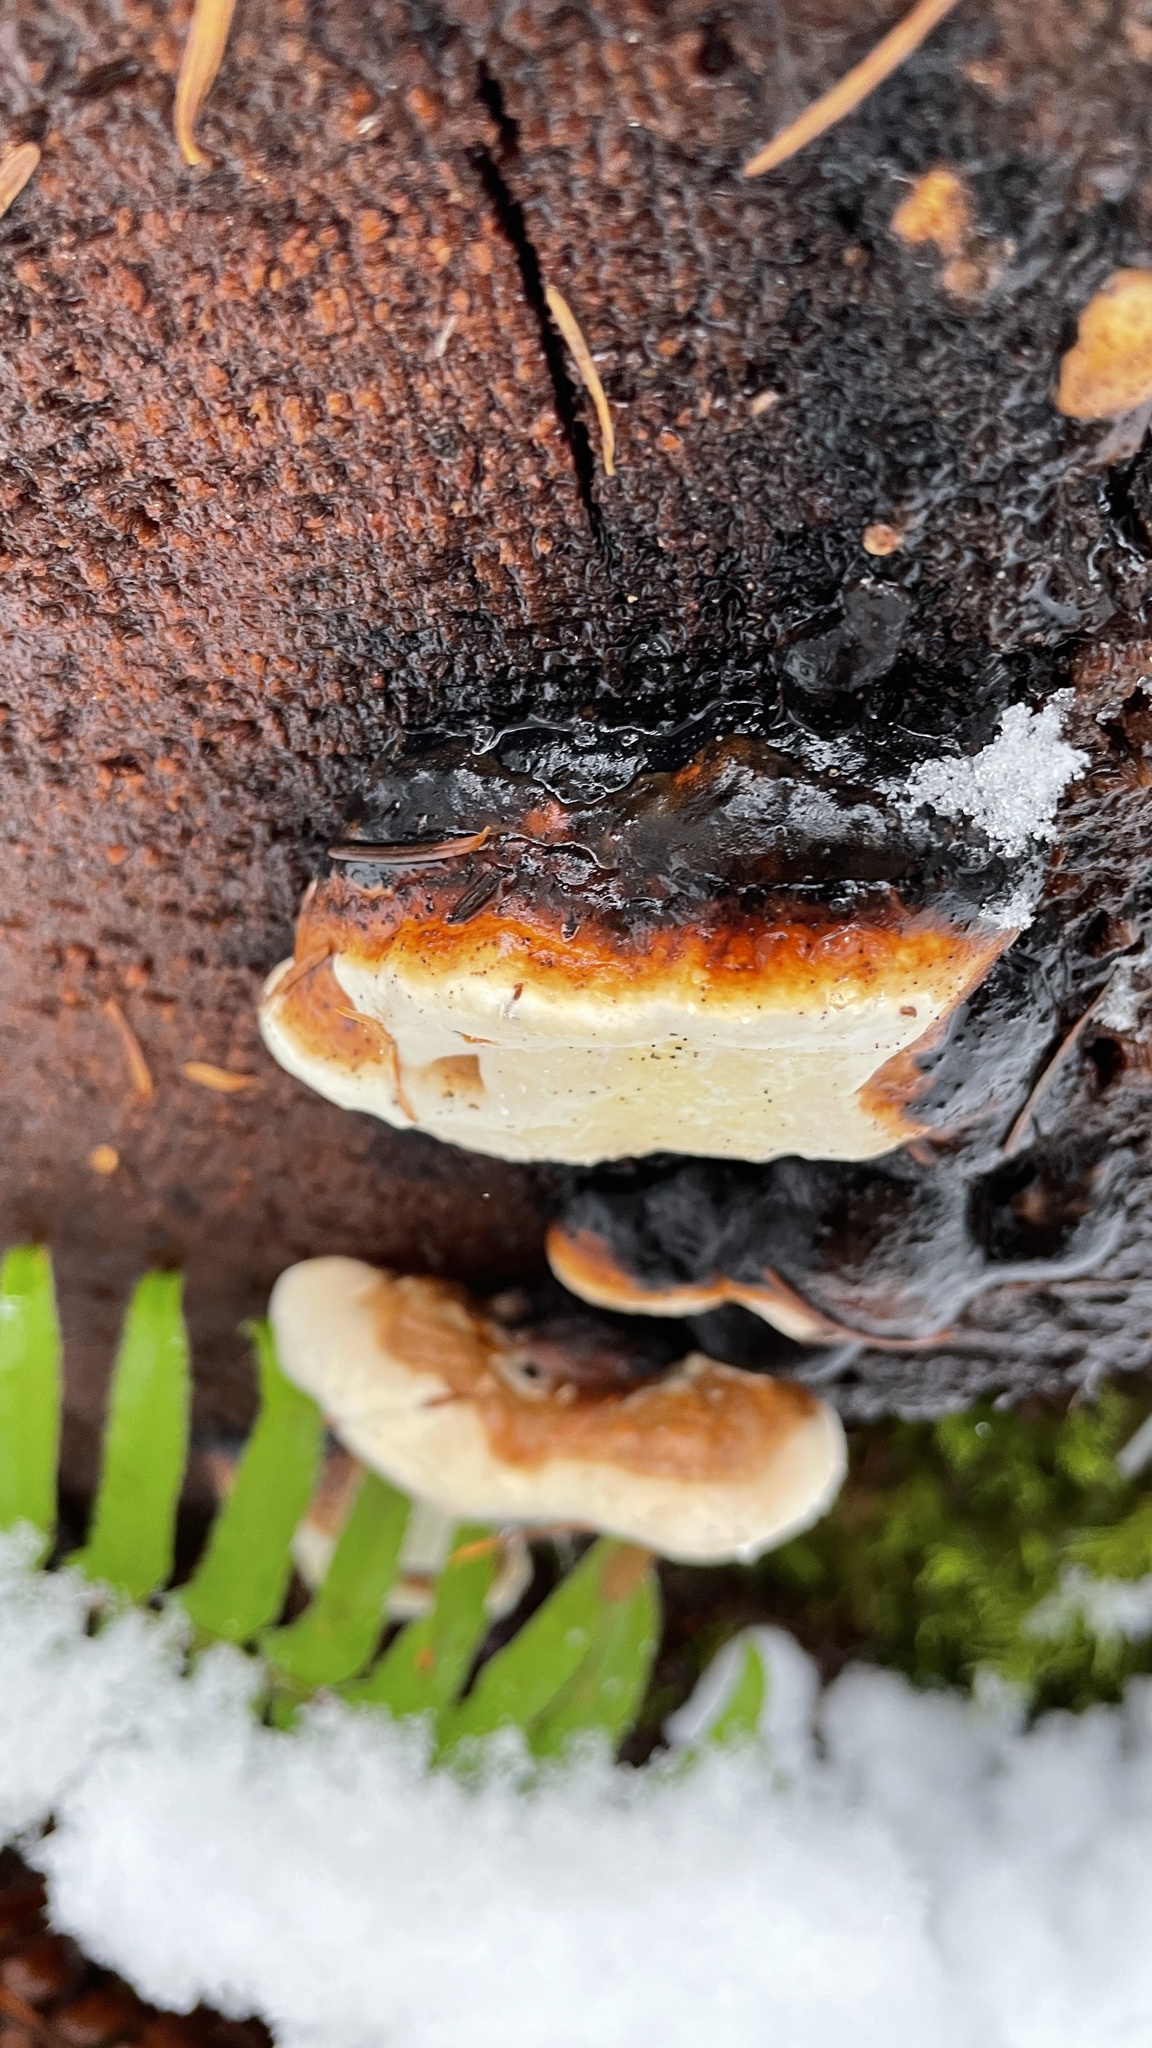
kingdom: Fungi
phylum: Basidiomycota
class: Agaricomycetes
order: Polyporales
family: Fomitopsidaceae
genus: Fomitopsis
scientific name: Fomitopsis mounceae
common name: Northern red belt
